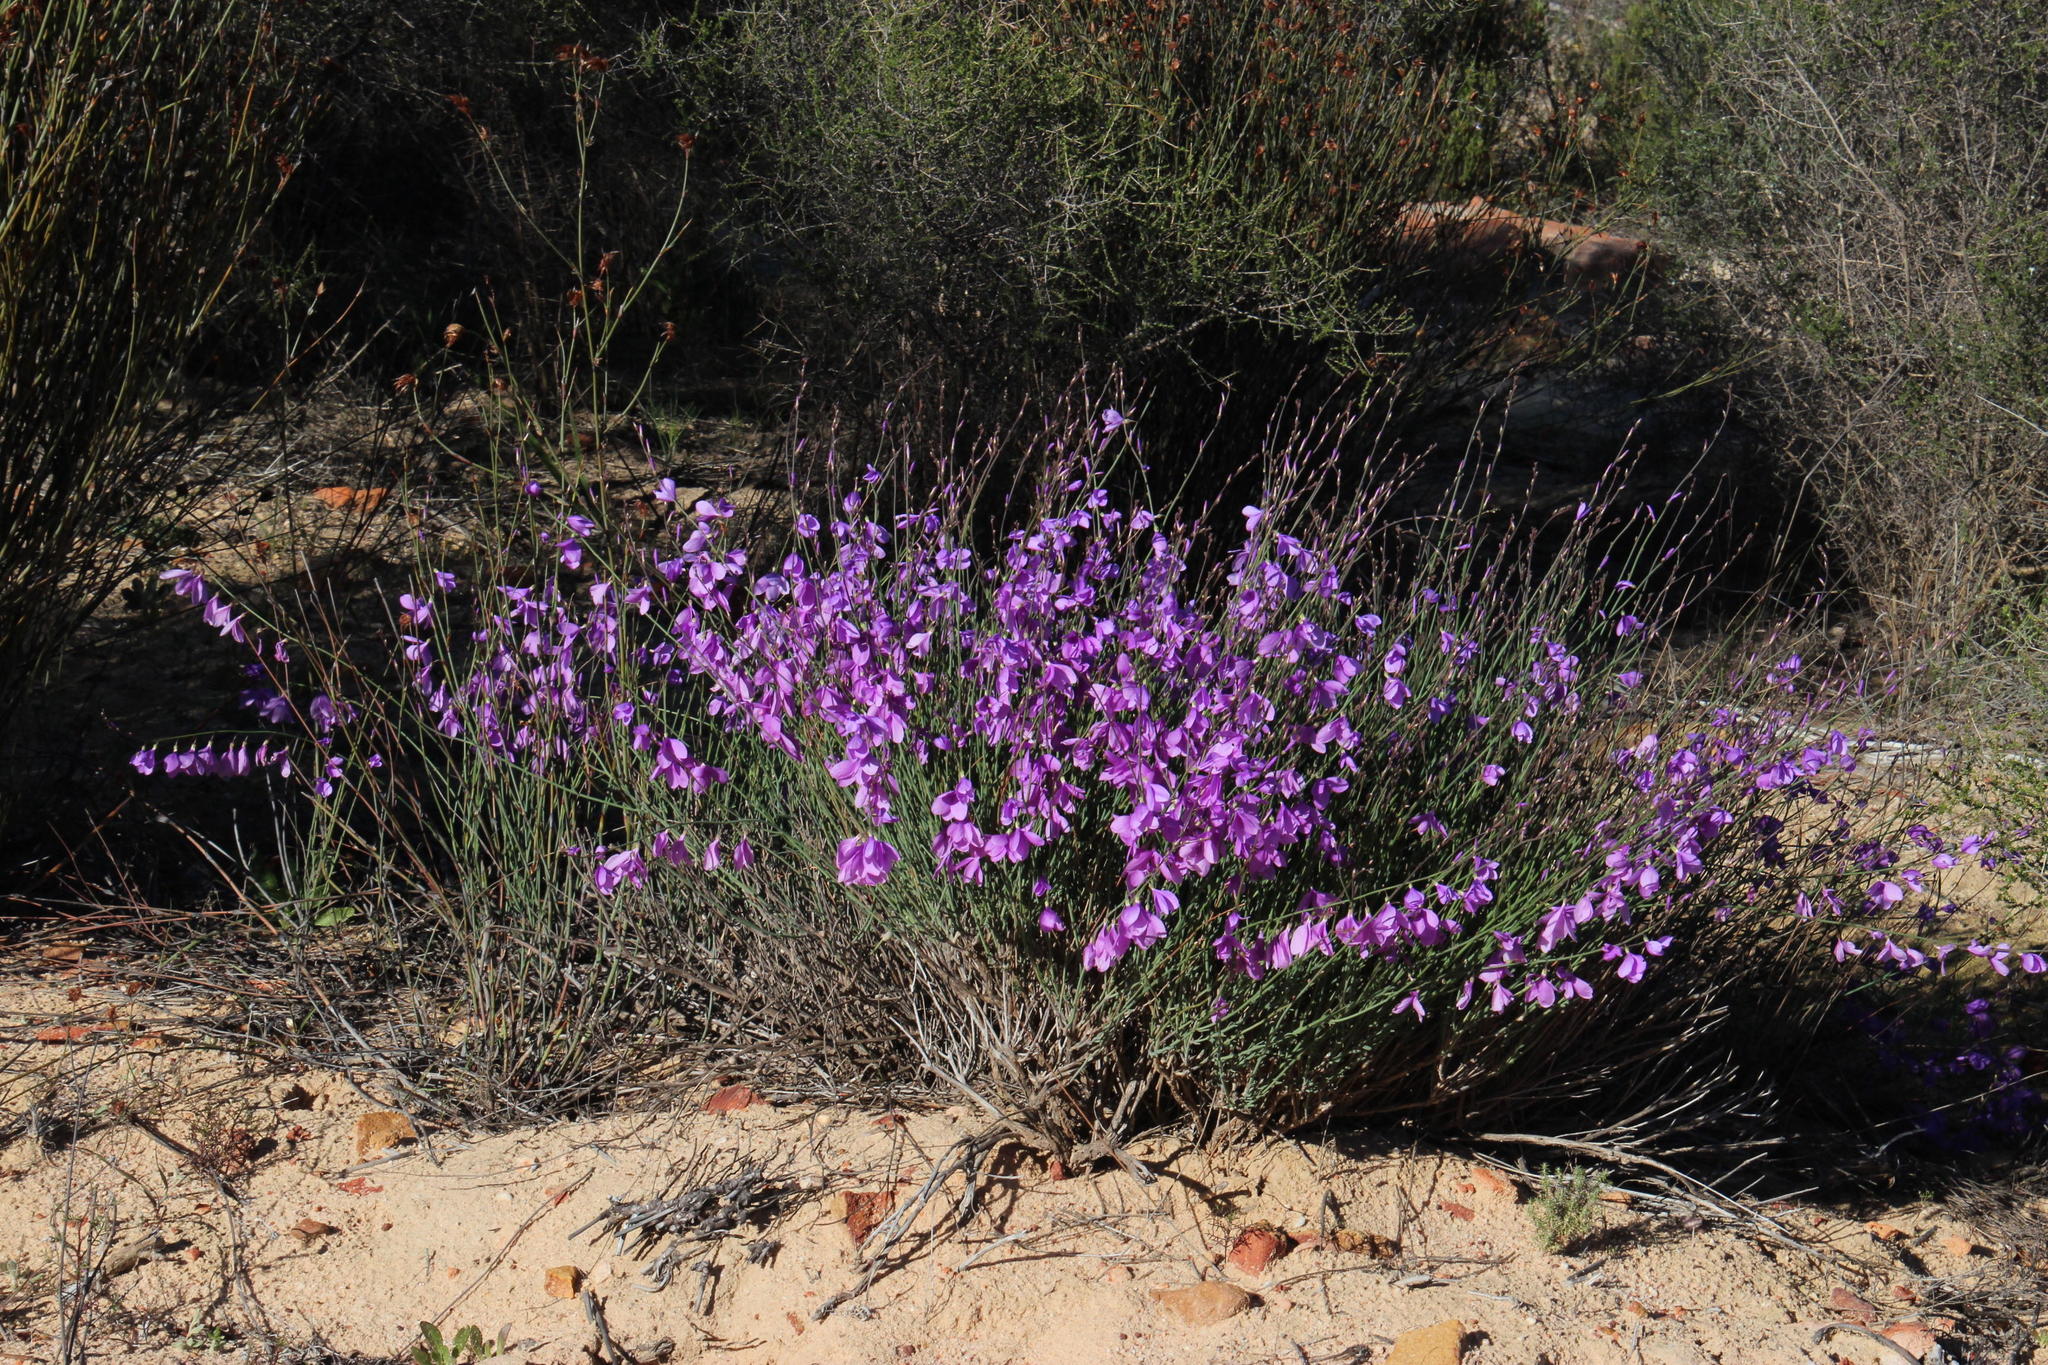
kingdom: Plantae
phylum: Tracheophyta
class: Magnoliopsida
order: Brassicales
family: Brassicaceae
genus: Heliophila
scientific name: Heliophila juncea
